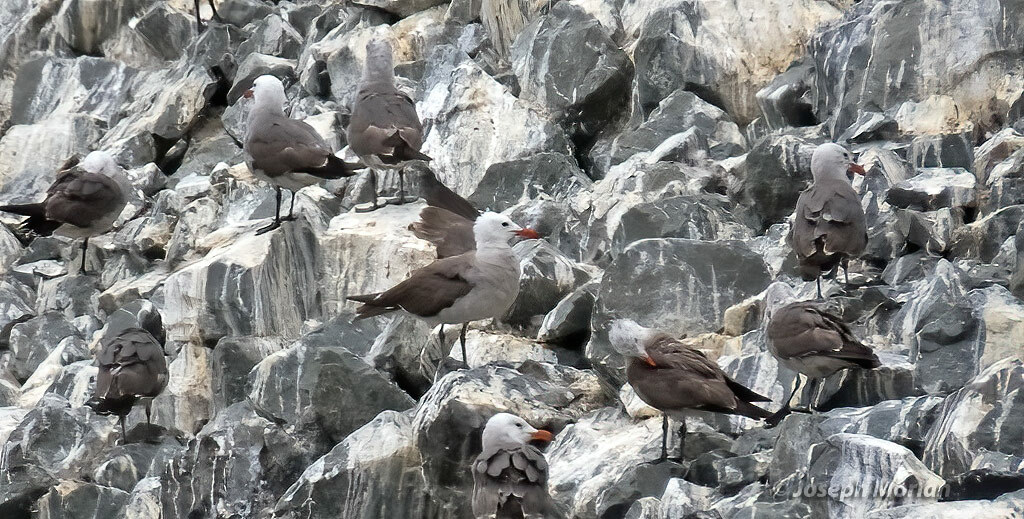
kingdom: Animalia
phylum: Chordata
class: Aves
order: Charadriiformes
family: Laridae
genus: Larus
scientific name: Larus heermanni
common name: Heermann's gull
